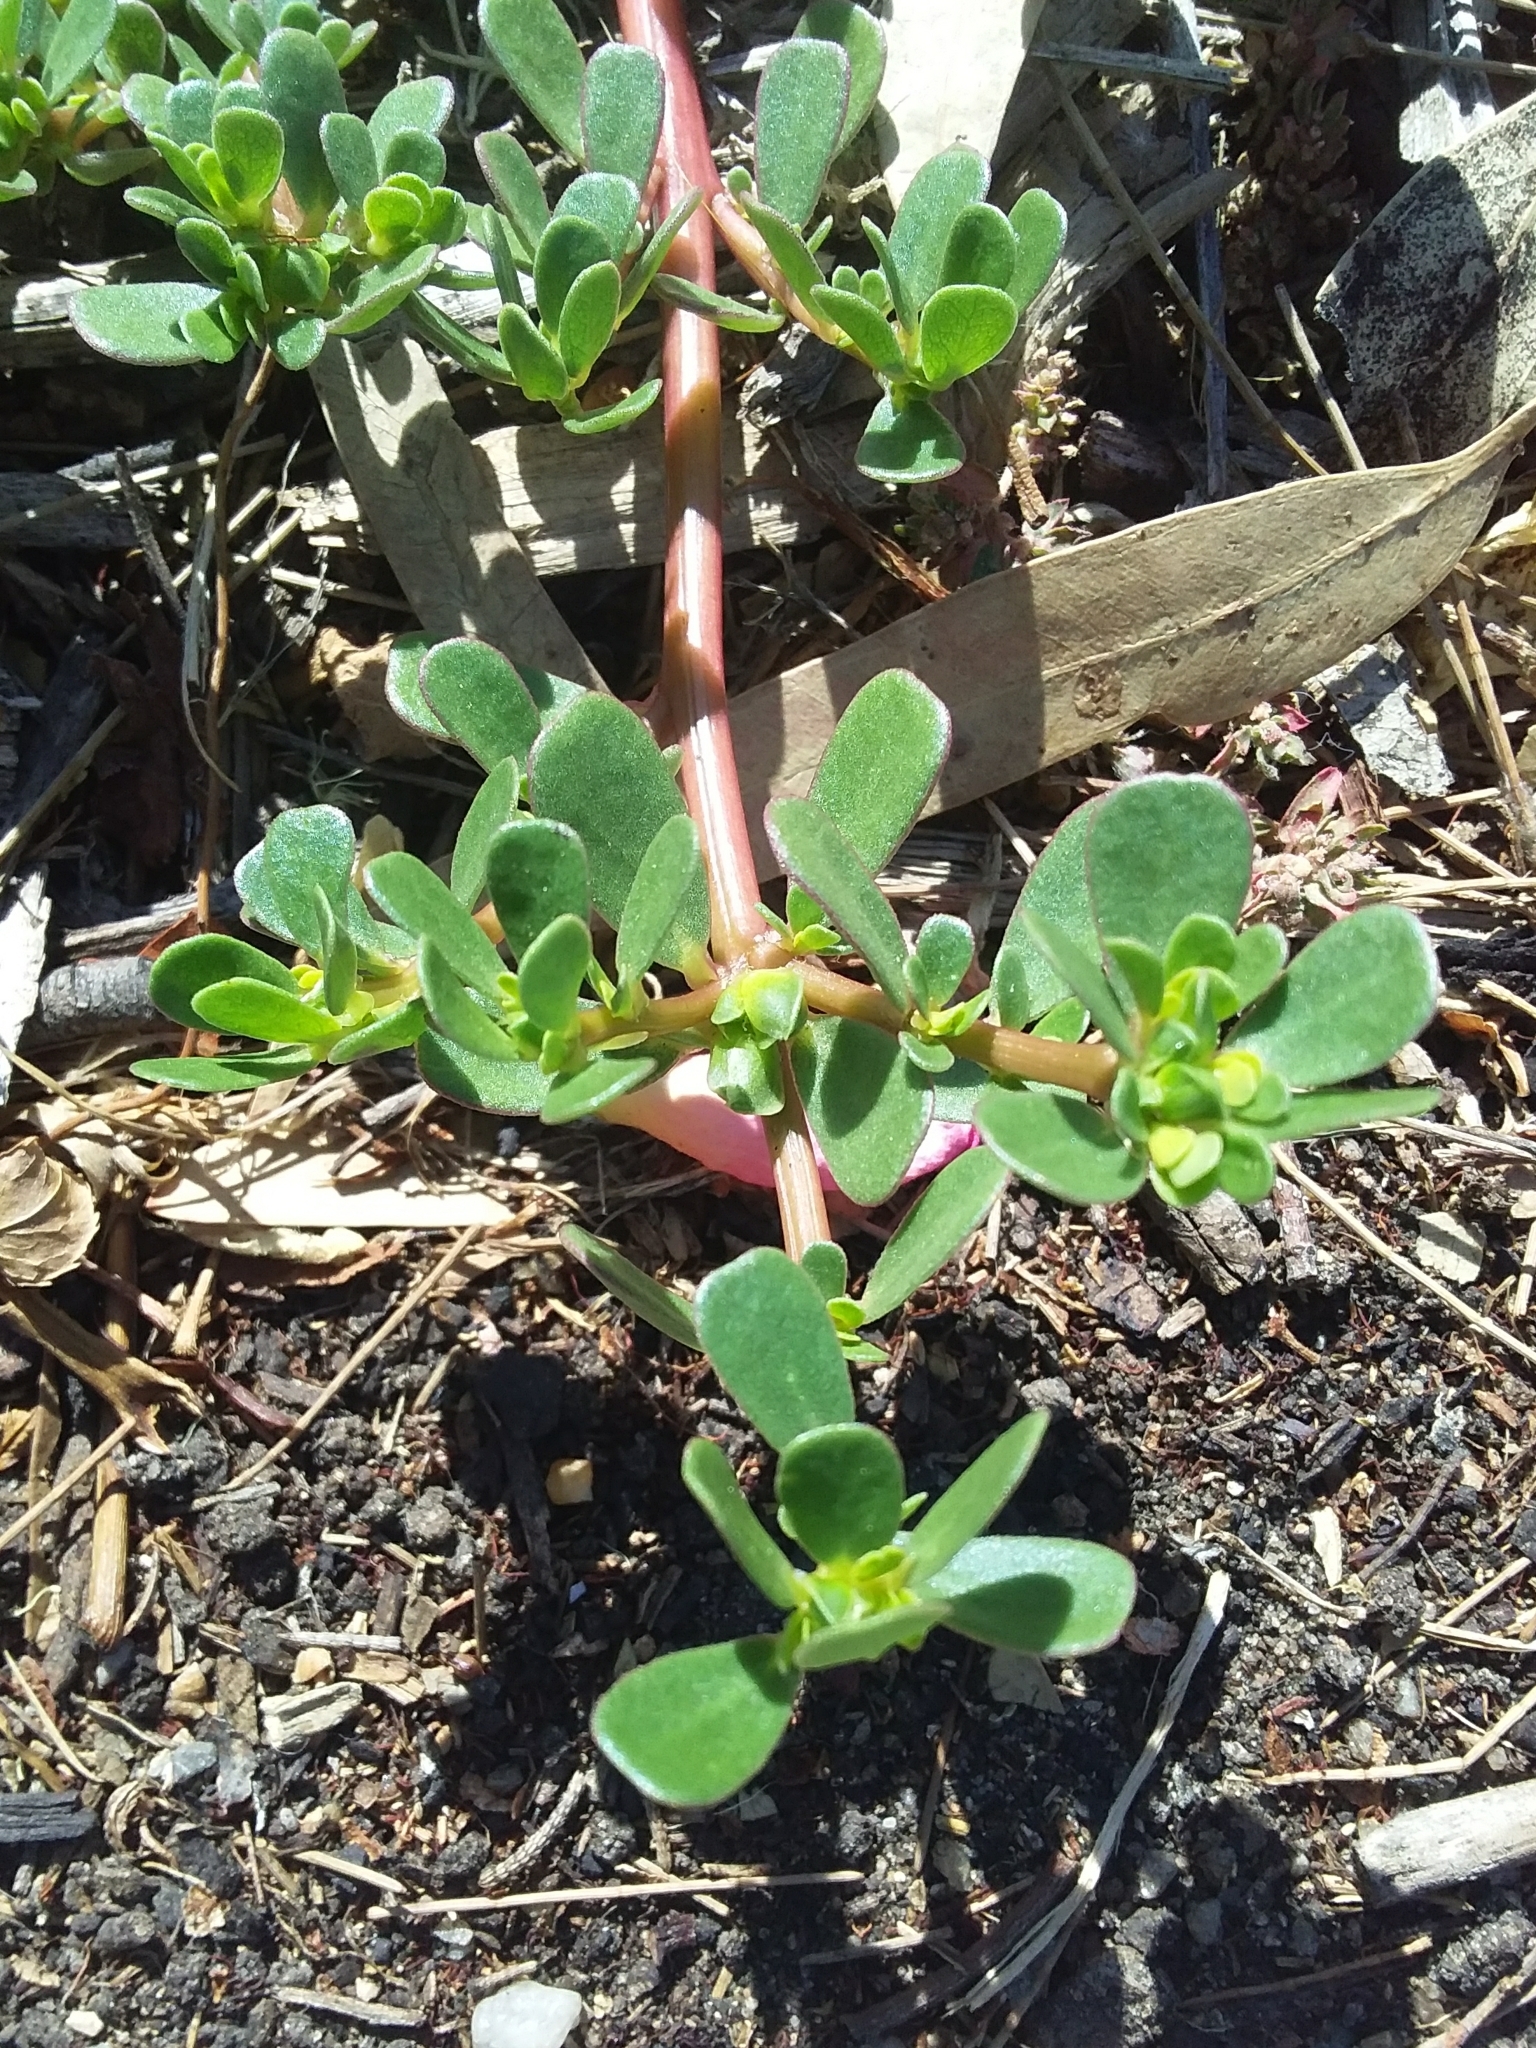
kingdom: Plantae
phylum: Tracheophyta
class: Magnoliopsida
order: Caryophyllales
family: Portulacaceae
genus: Portulaca
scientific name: Portulaca oleracea
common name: Common purslane
